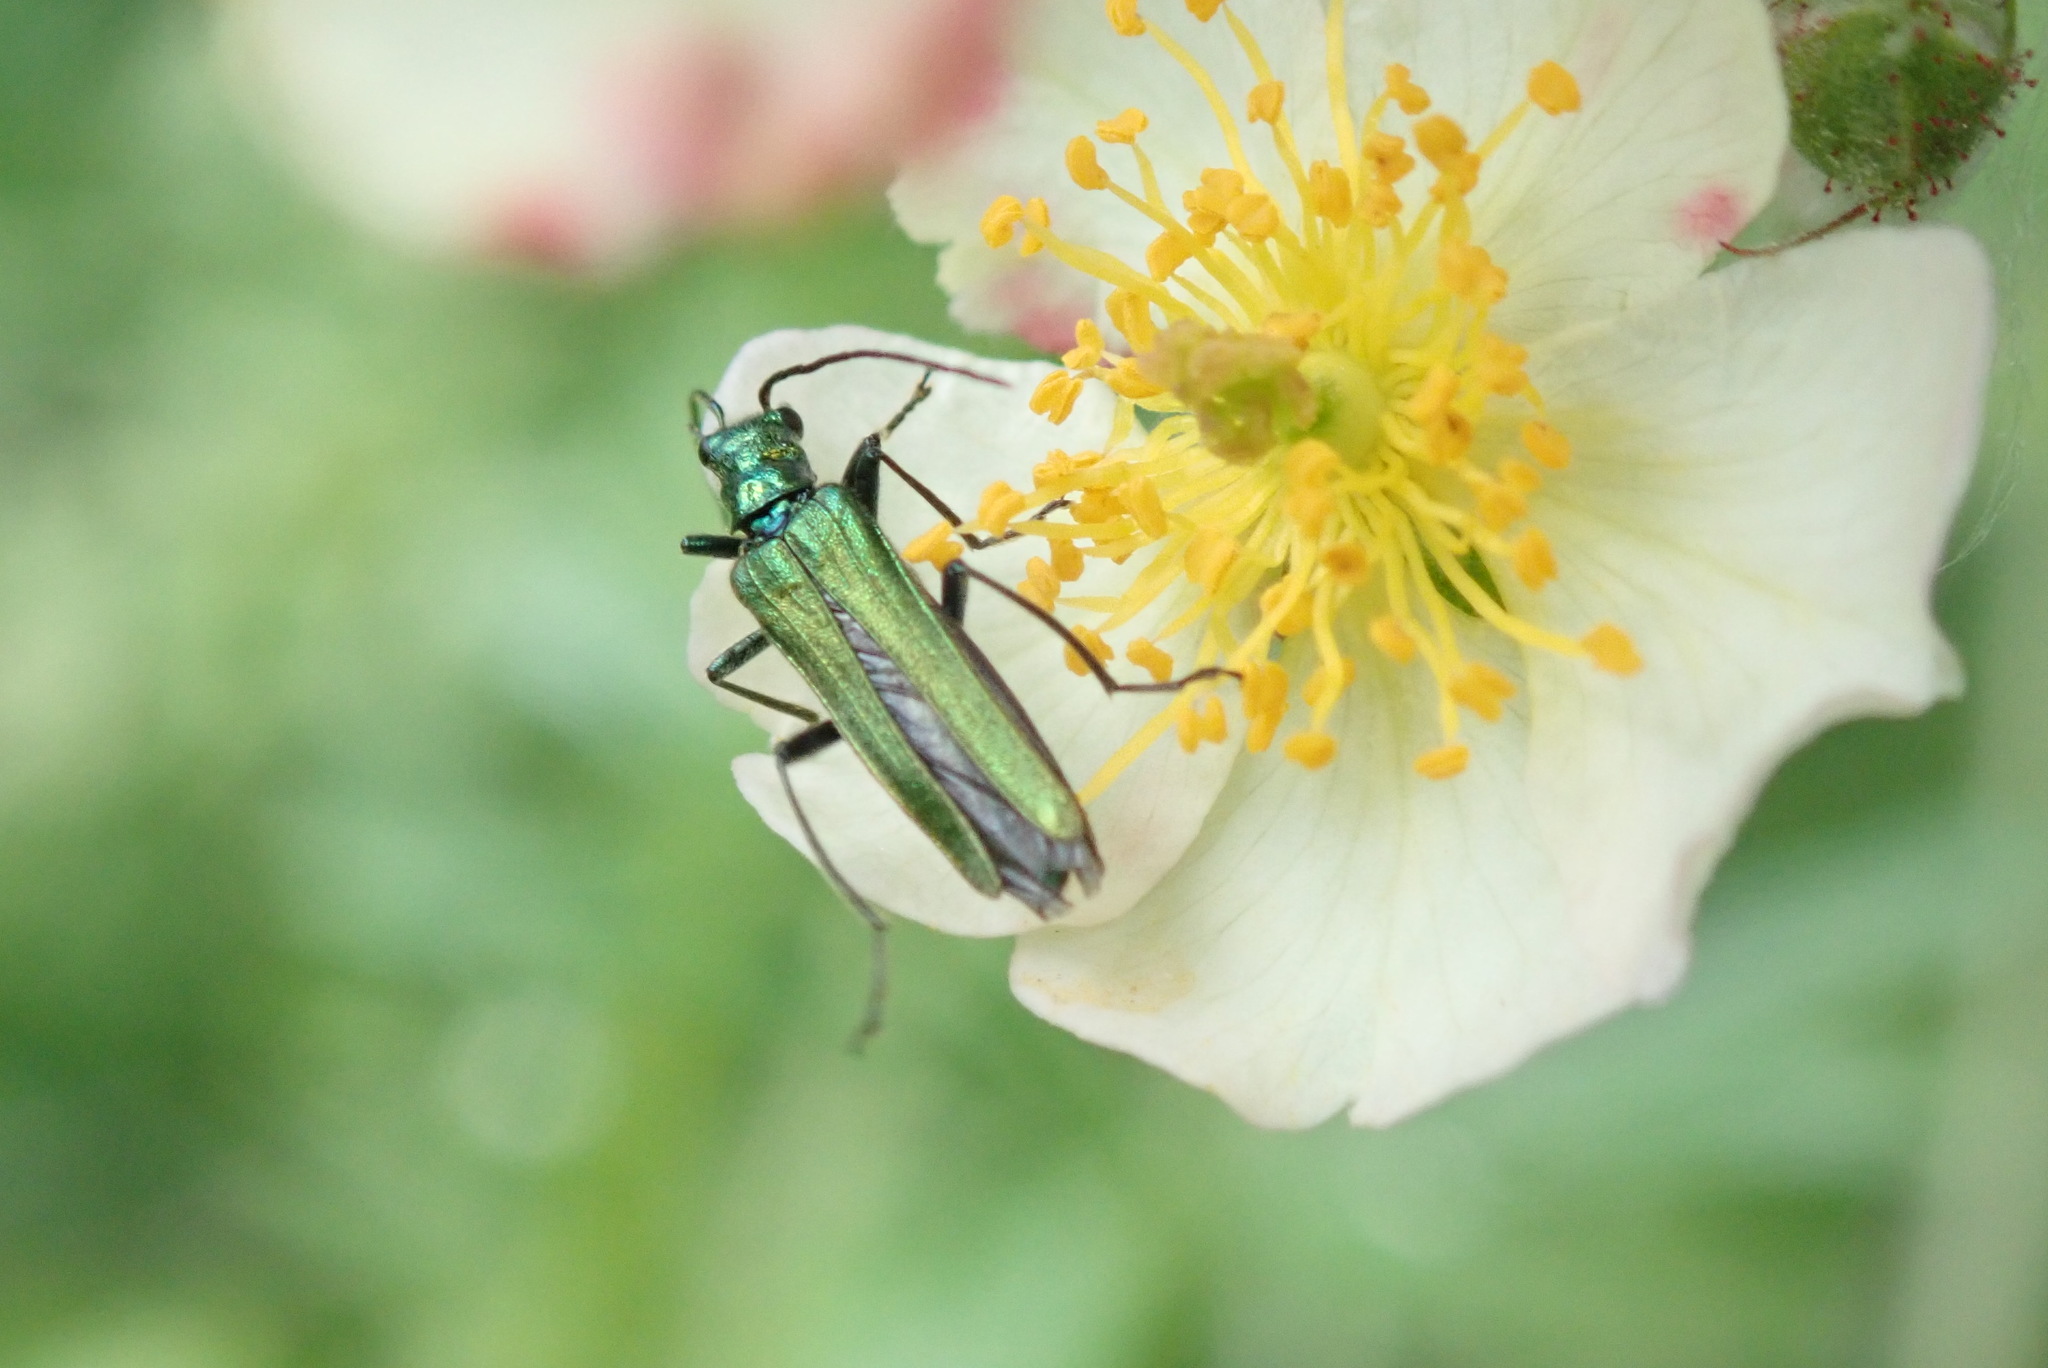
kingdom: Animalia
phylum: Arthropoda
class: Insecta
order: Coleoptera
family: Oedemeridae
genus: Oedemera
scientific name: Oedemera nobilis
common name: Swollen-thighed beetle
